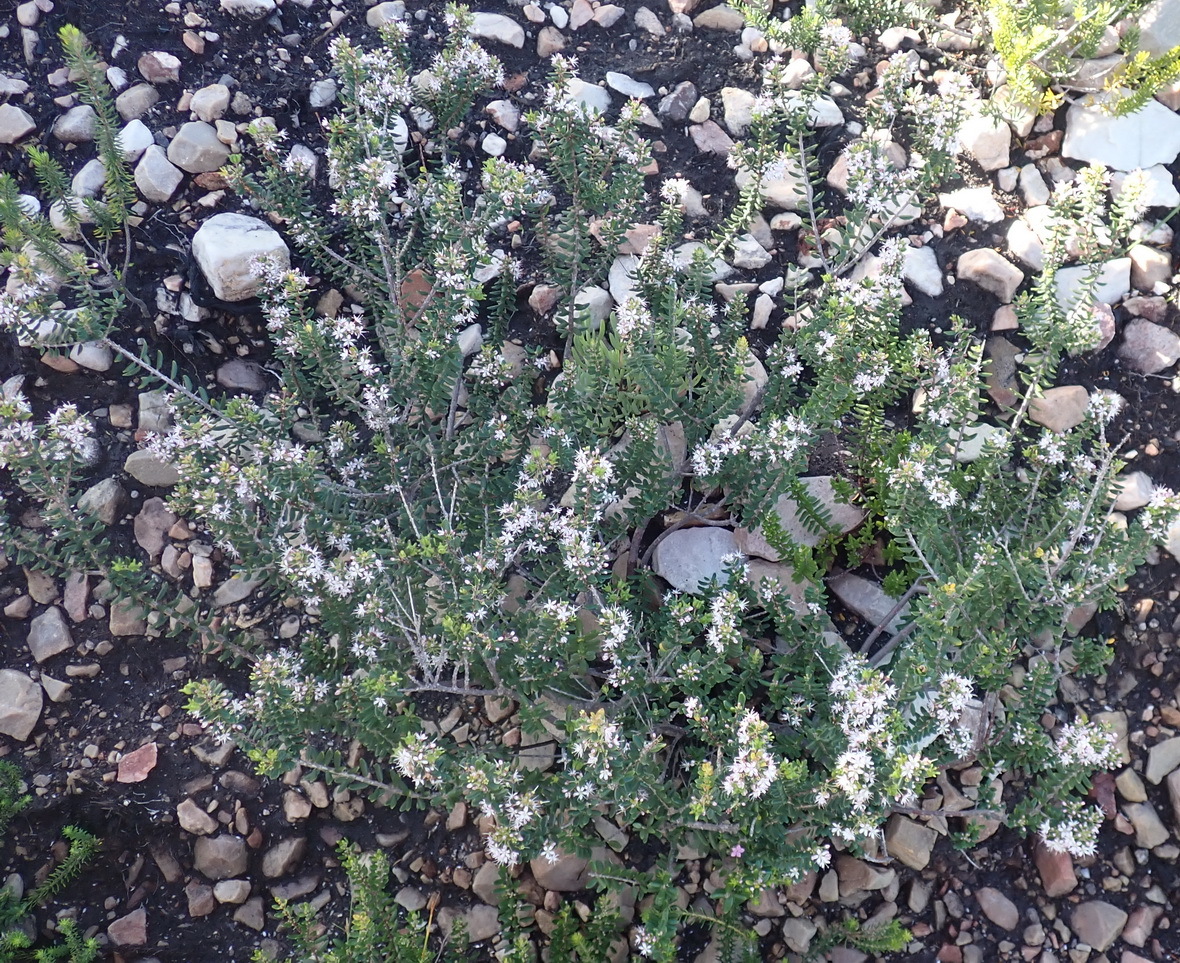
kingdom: Plantae
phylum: Tracheophyta
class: Magnoliopsida
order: Sapindales
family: Rutaceae
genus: Agathosma
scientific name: Agathosma ovata
